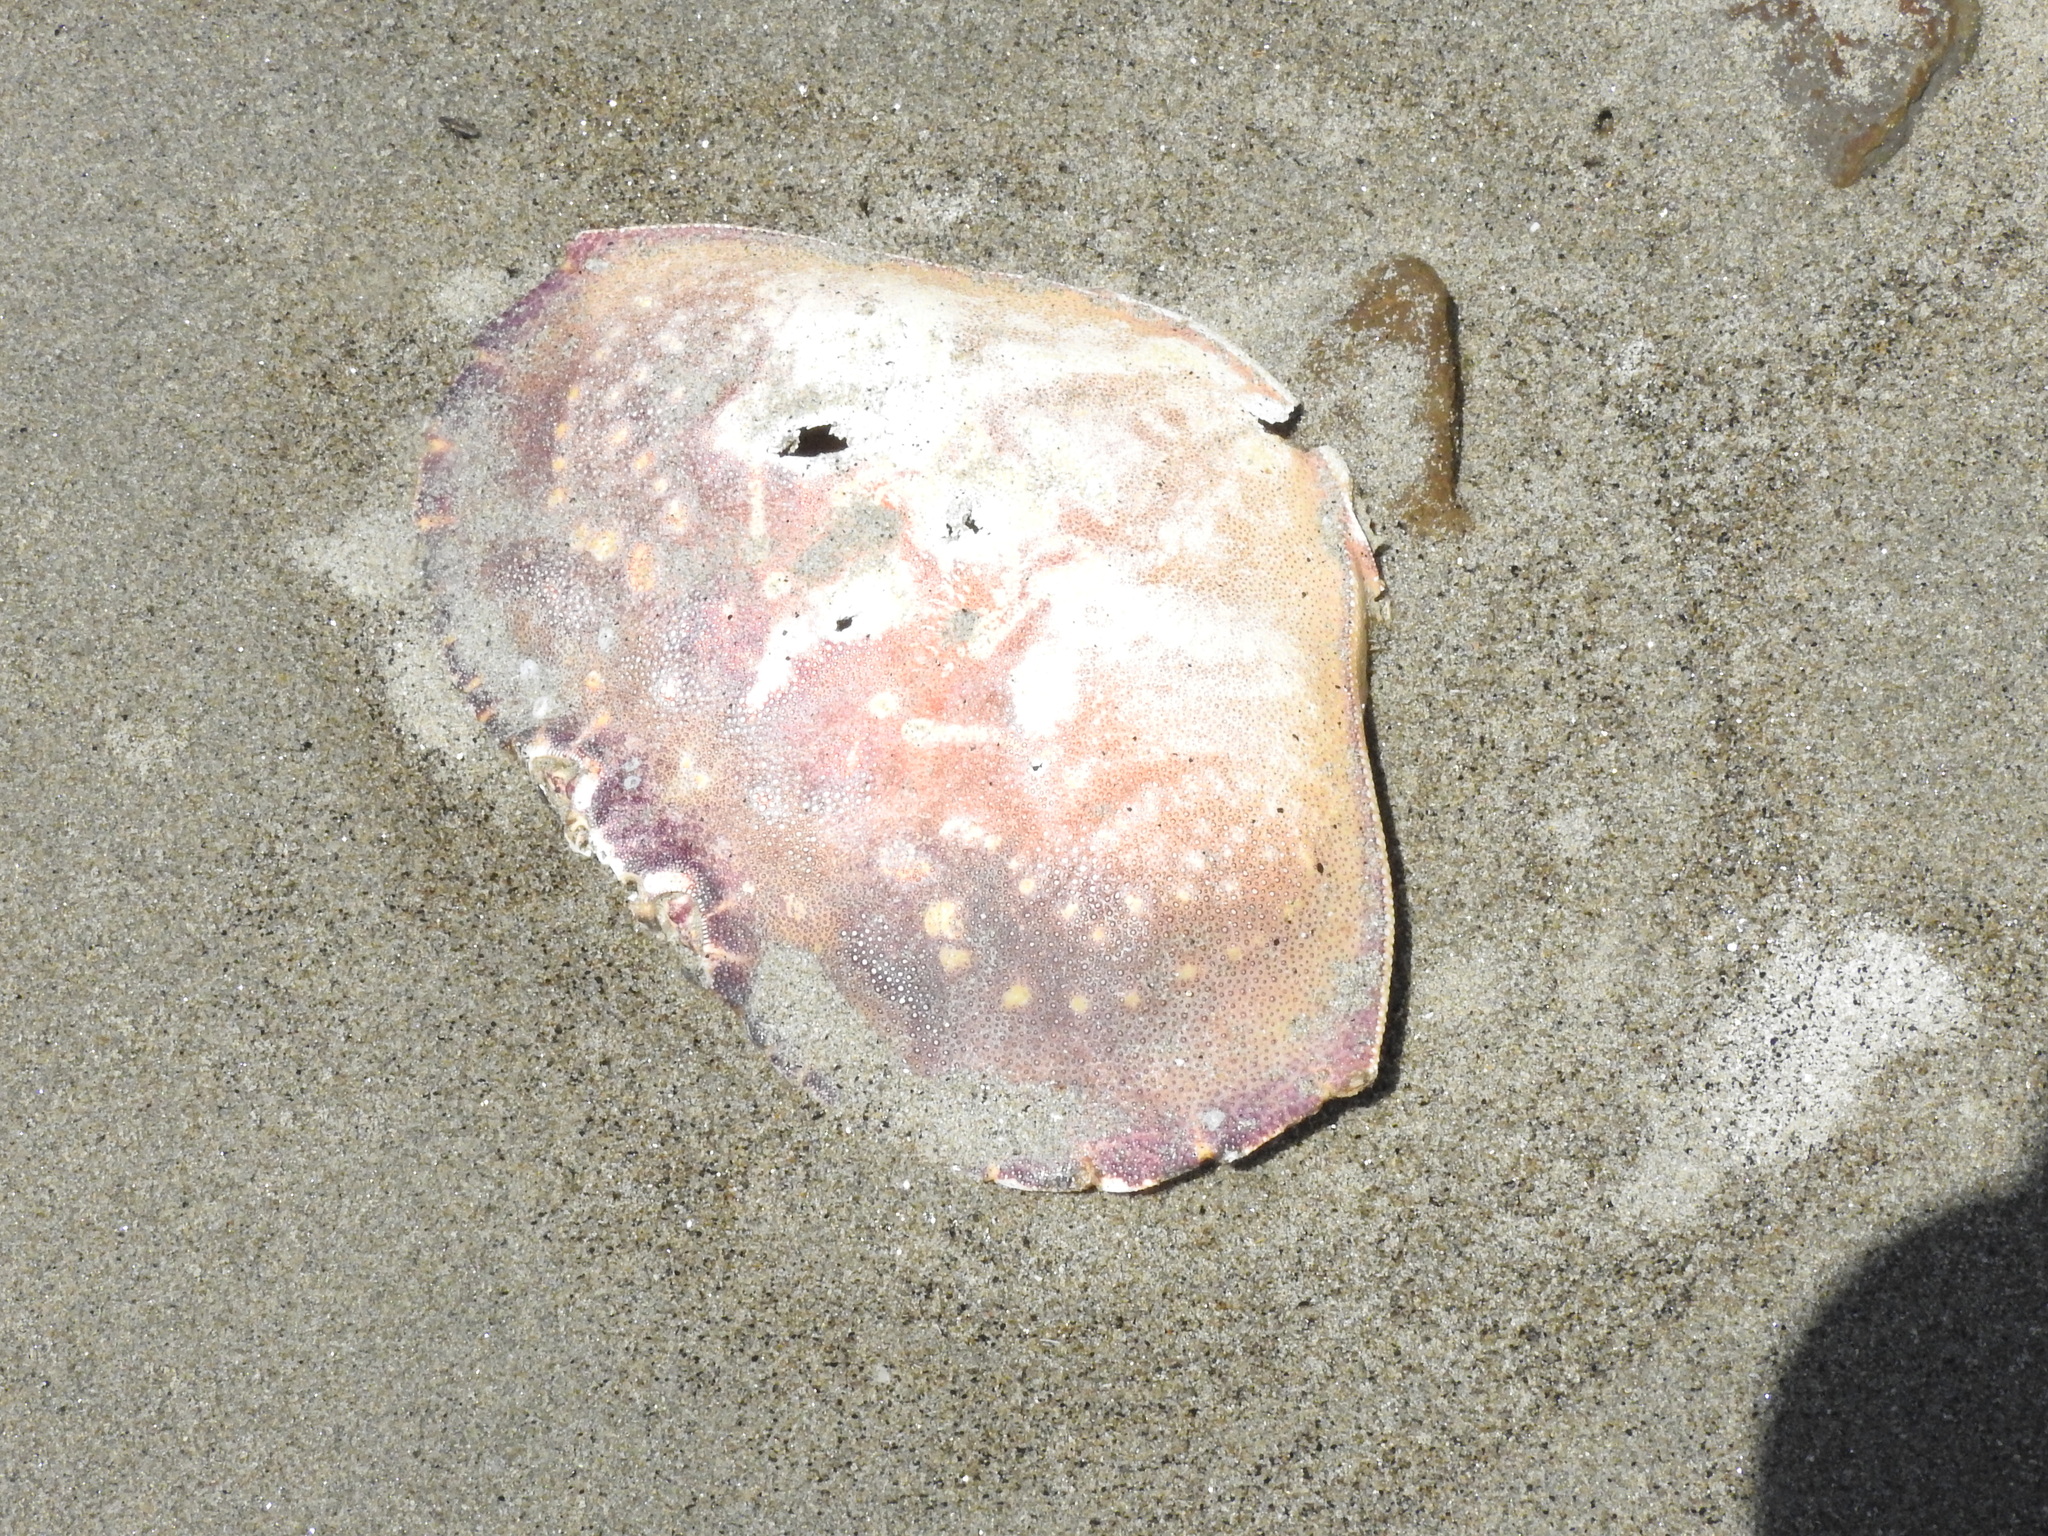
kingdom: Animalia
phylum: Arthropoda
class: Malacostraca
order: Decapoda
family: Cancridae
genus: Metacarcinus
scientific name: Metacarcinus magister
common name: Californian crab
